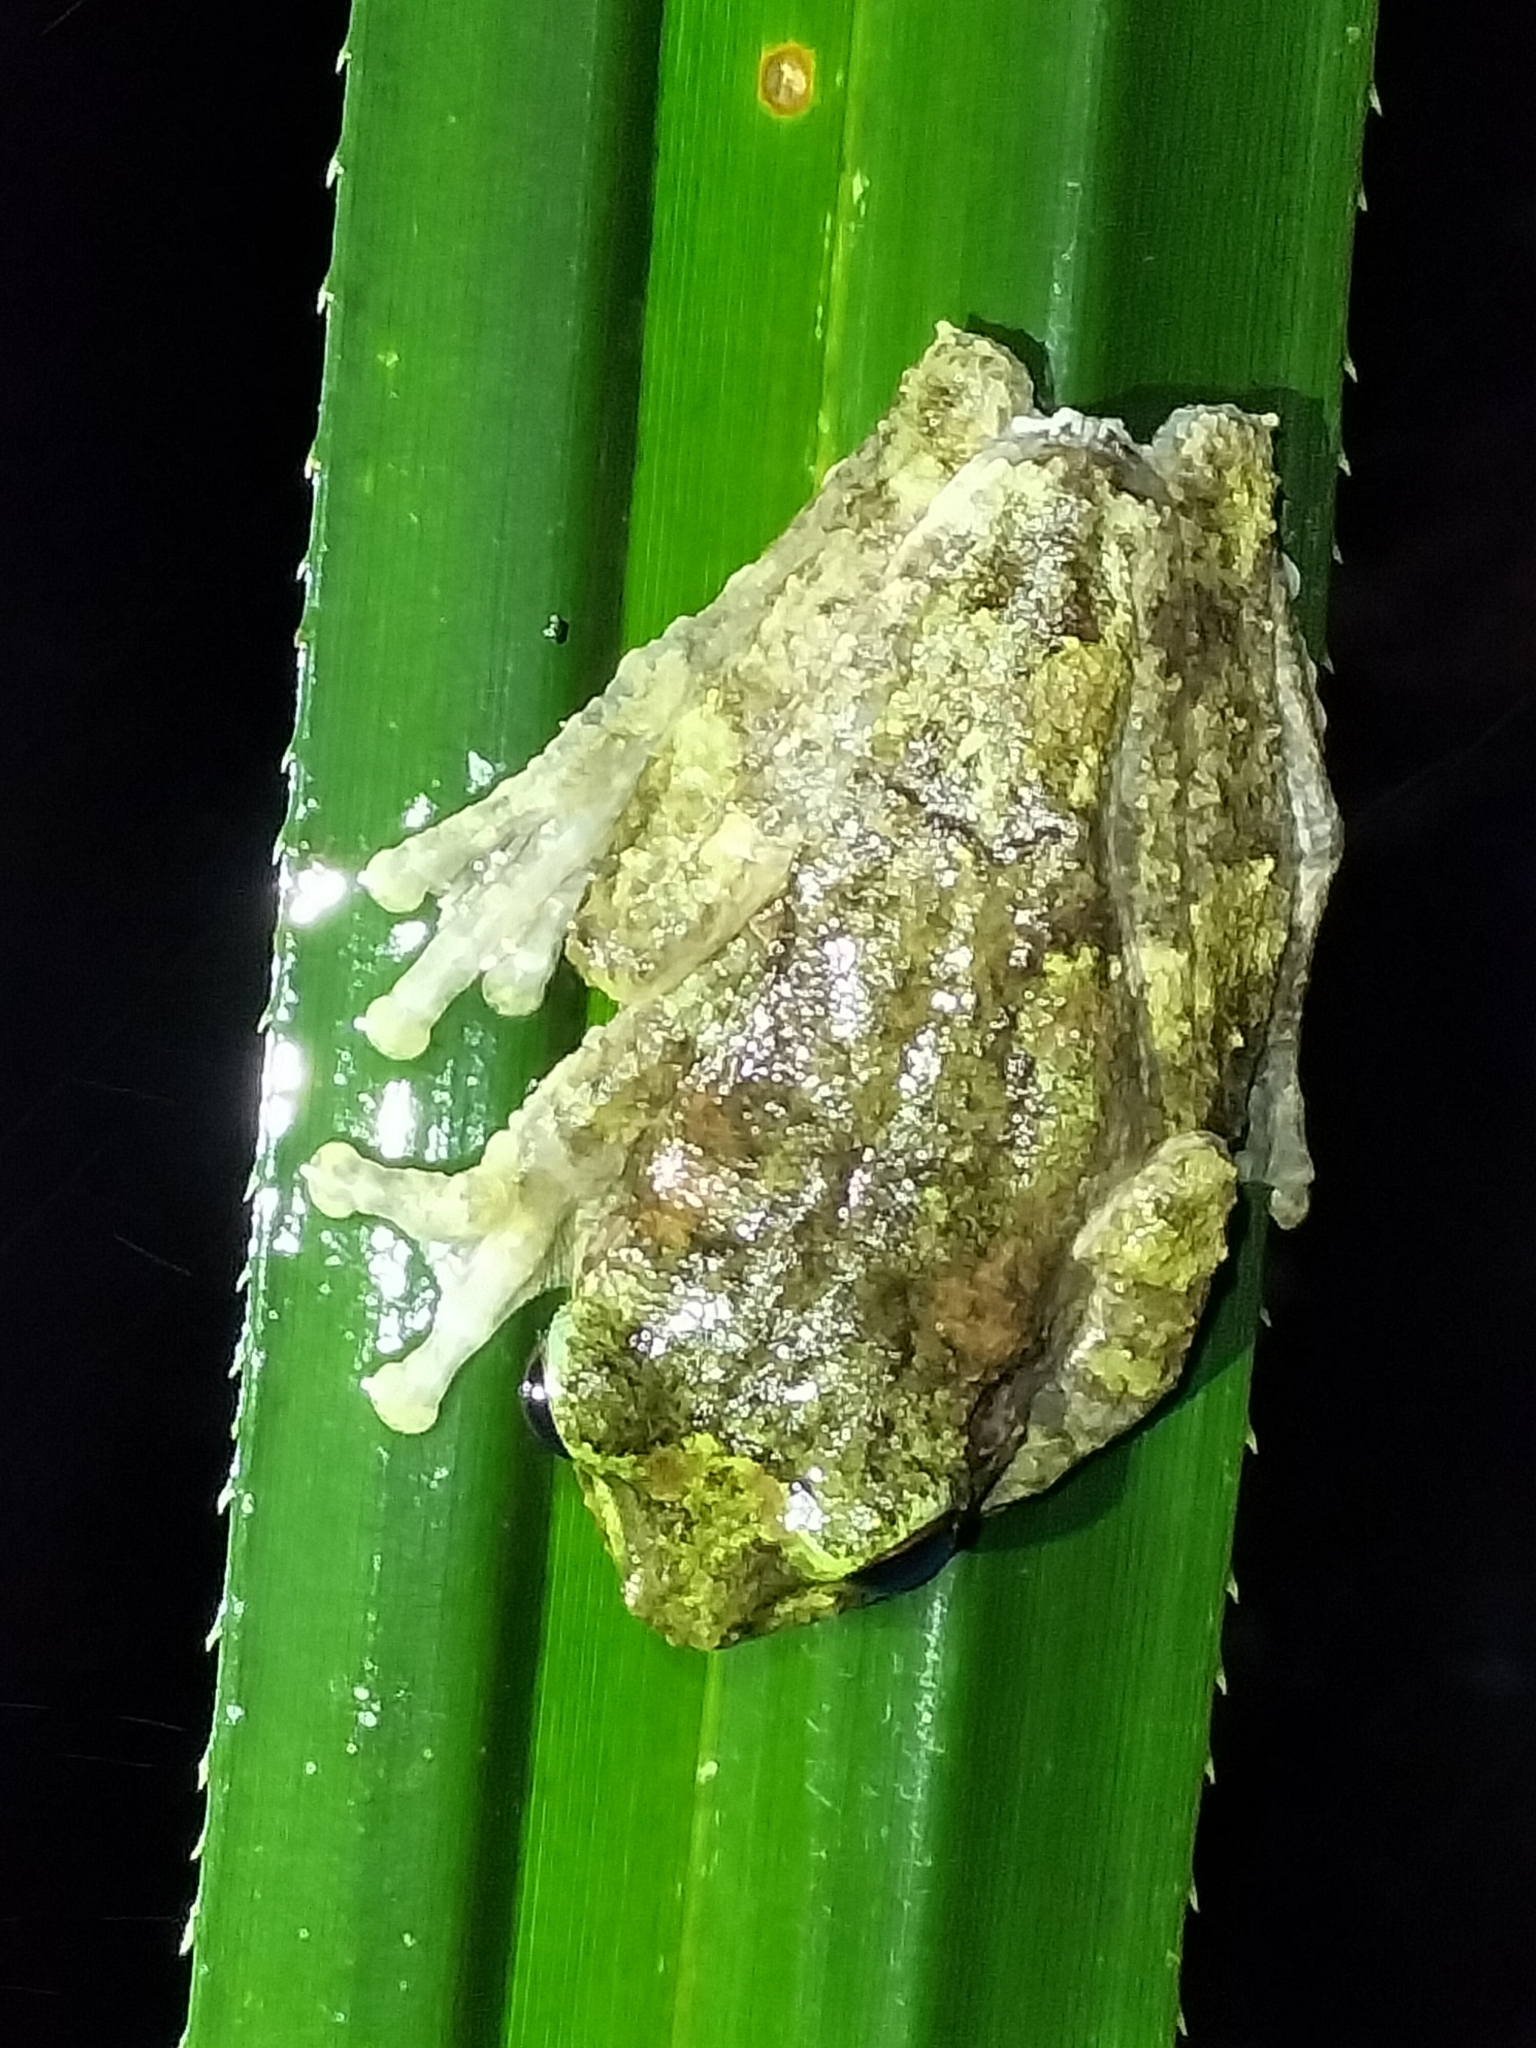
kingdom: Animalia
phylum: Chordata
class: Amphibia
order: Anura
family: Pelodryadidae
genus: Ranoidea
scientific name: Ranoidea serrata
